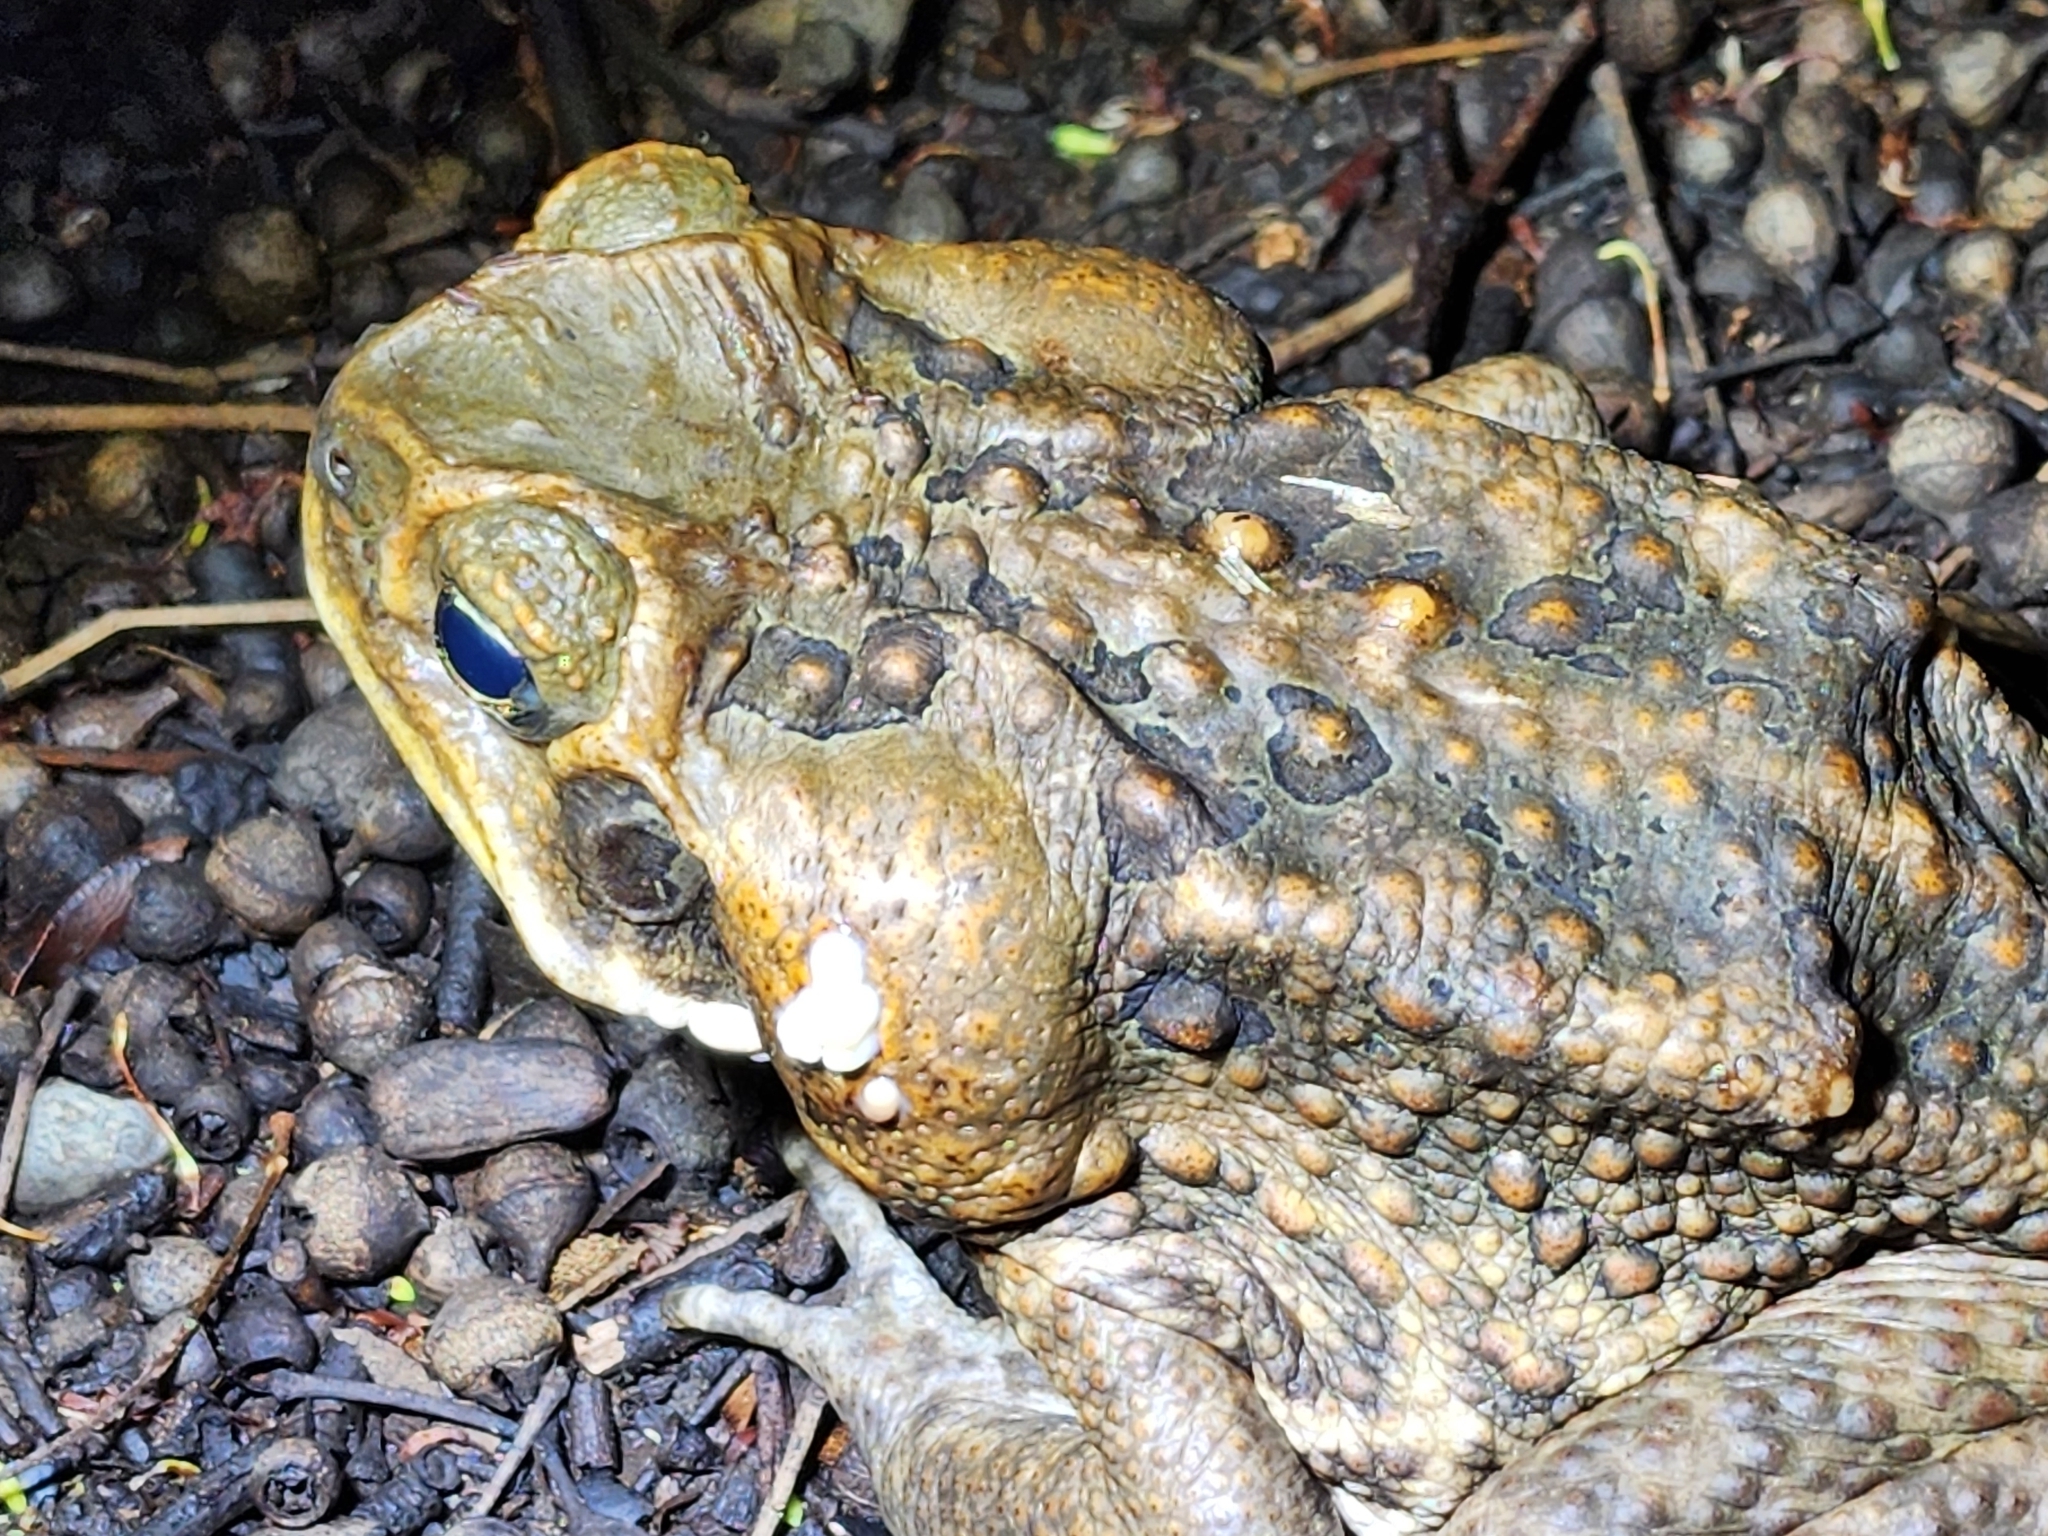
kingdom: Animalia
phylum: Chordata
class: Amphibia
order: Anura
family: Bufonidae
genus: Rhinella
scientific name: Rhinella marina
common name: Cane toad
